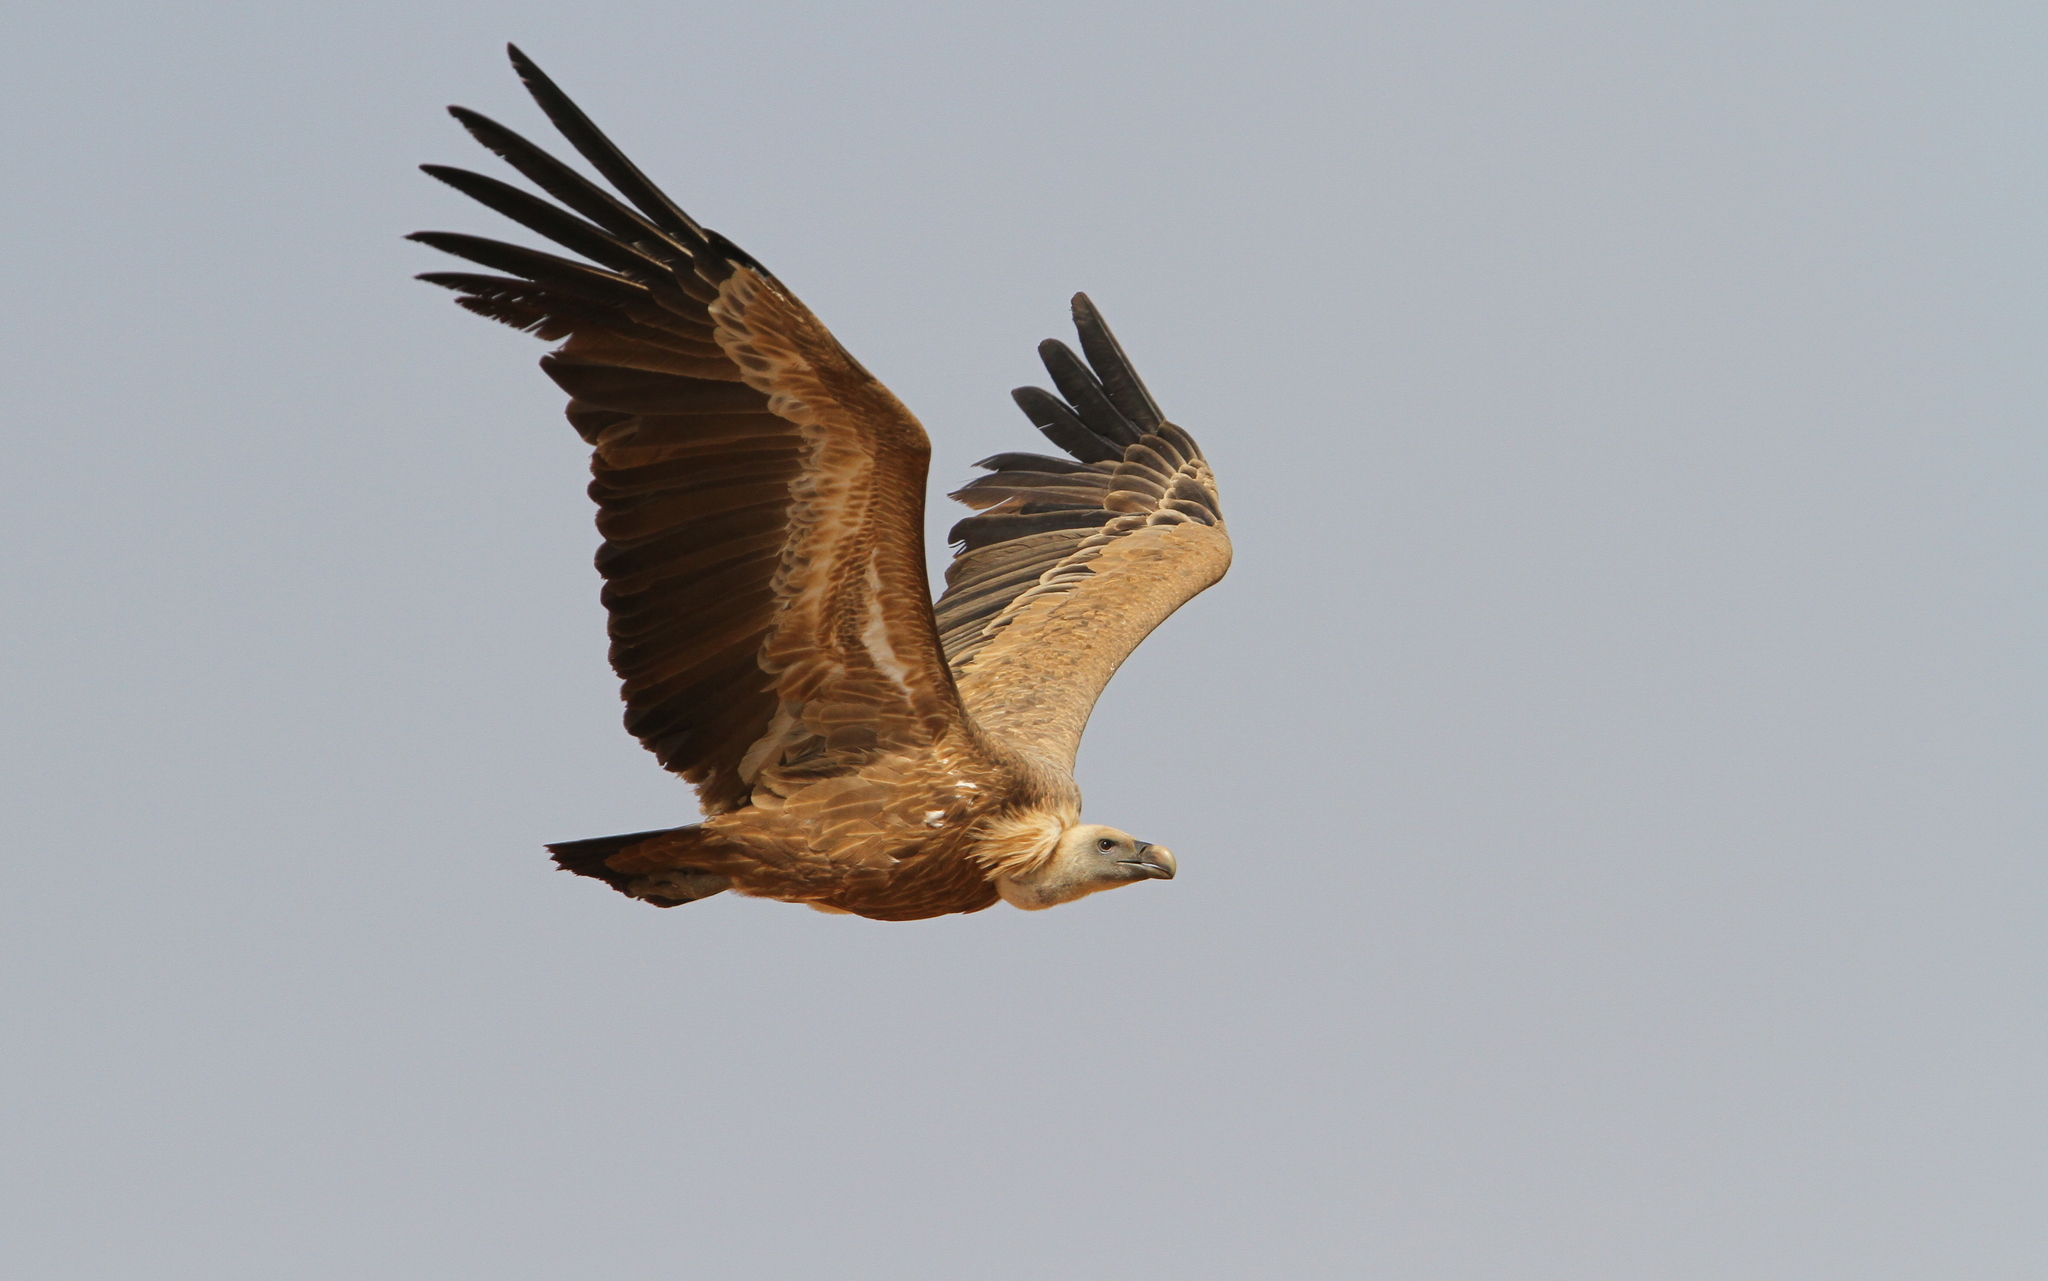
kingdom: Animalia
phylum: Chordata
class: Aves
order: Accipitriformes
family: Accipitridae
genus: Gyps
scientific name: Gyps fulvus
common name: Griffon vulture
